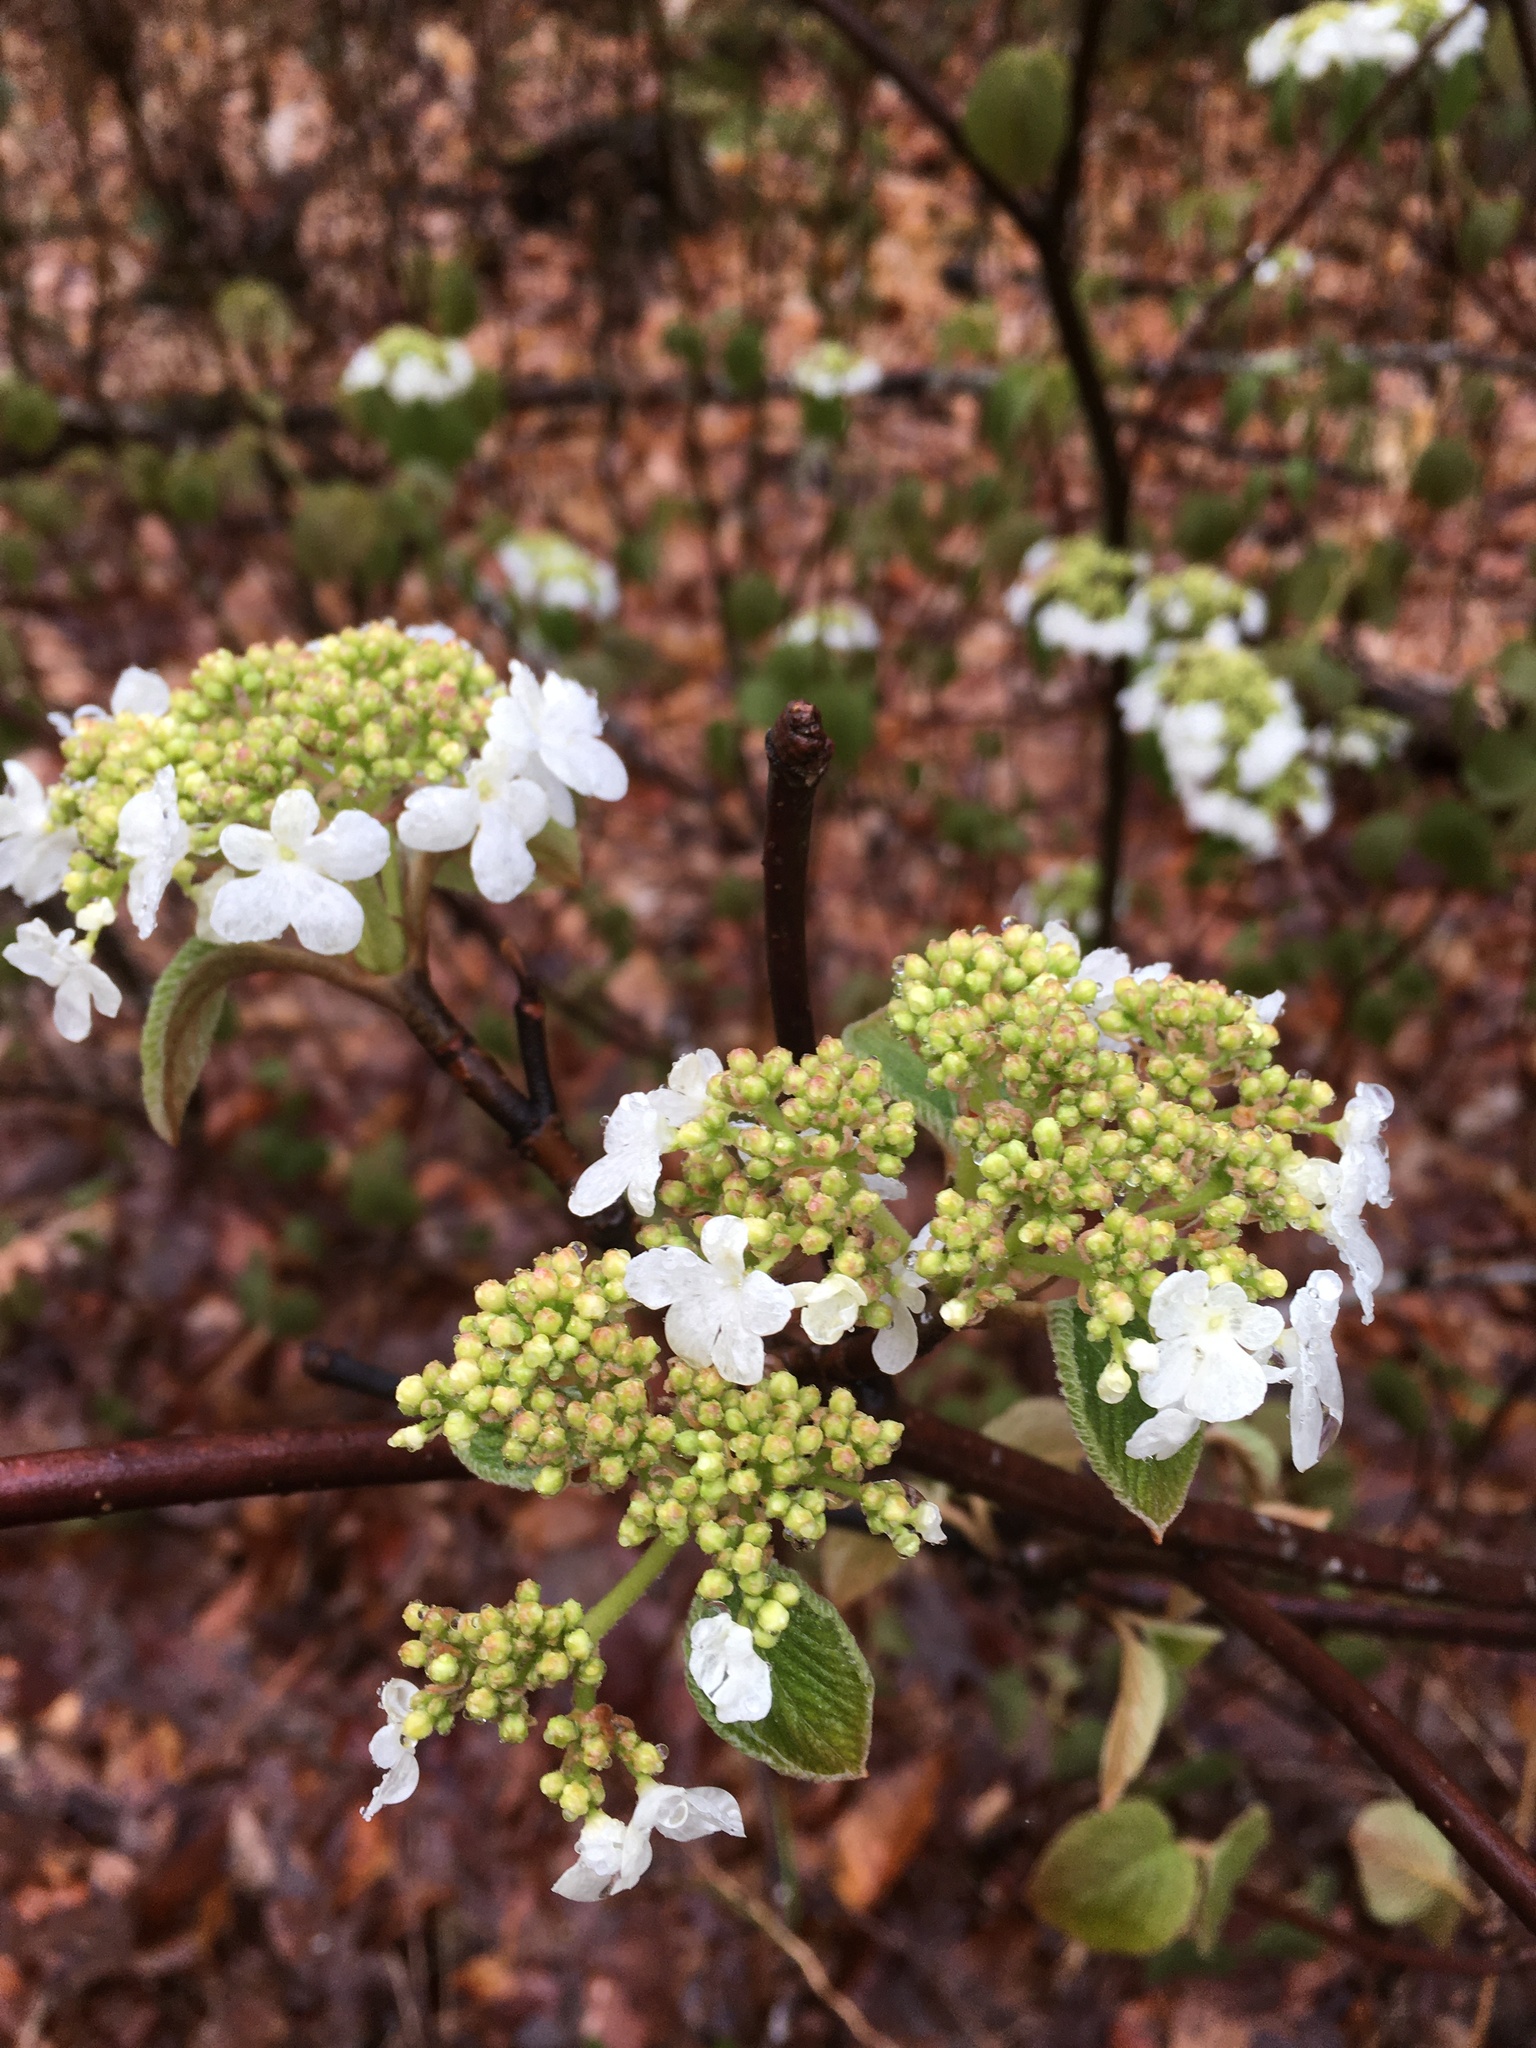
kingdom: Plantae
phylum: Tracheophyta
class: Magnoliopsida
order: Dipsacales
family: Viburnaceae
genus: Viburnum
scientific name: Viburnum lantanoides
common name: Hobblebush
